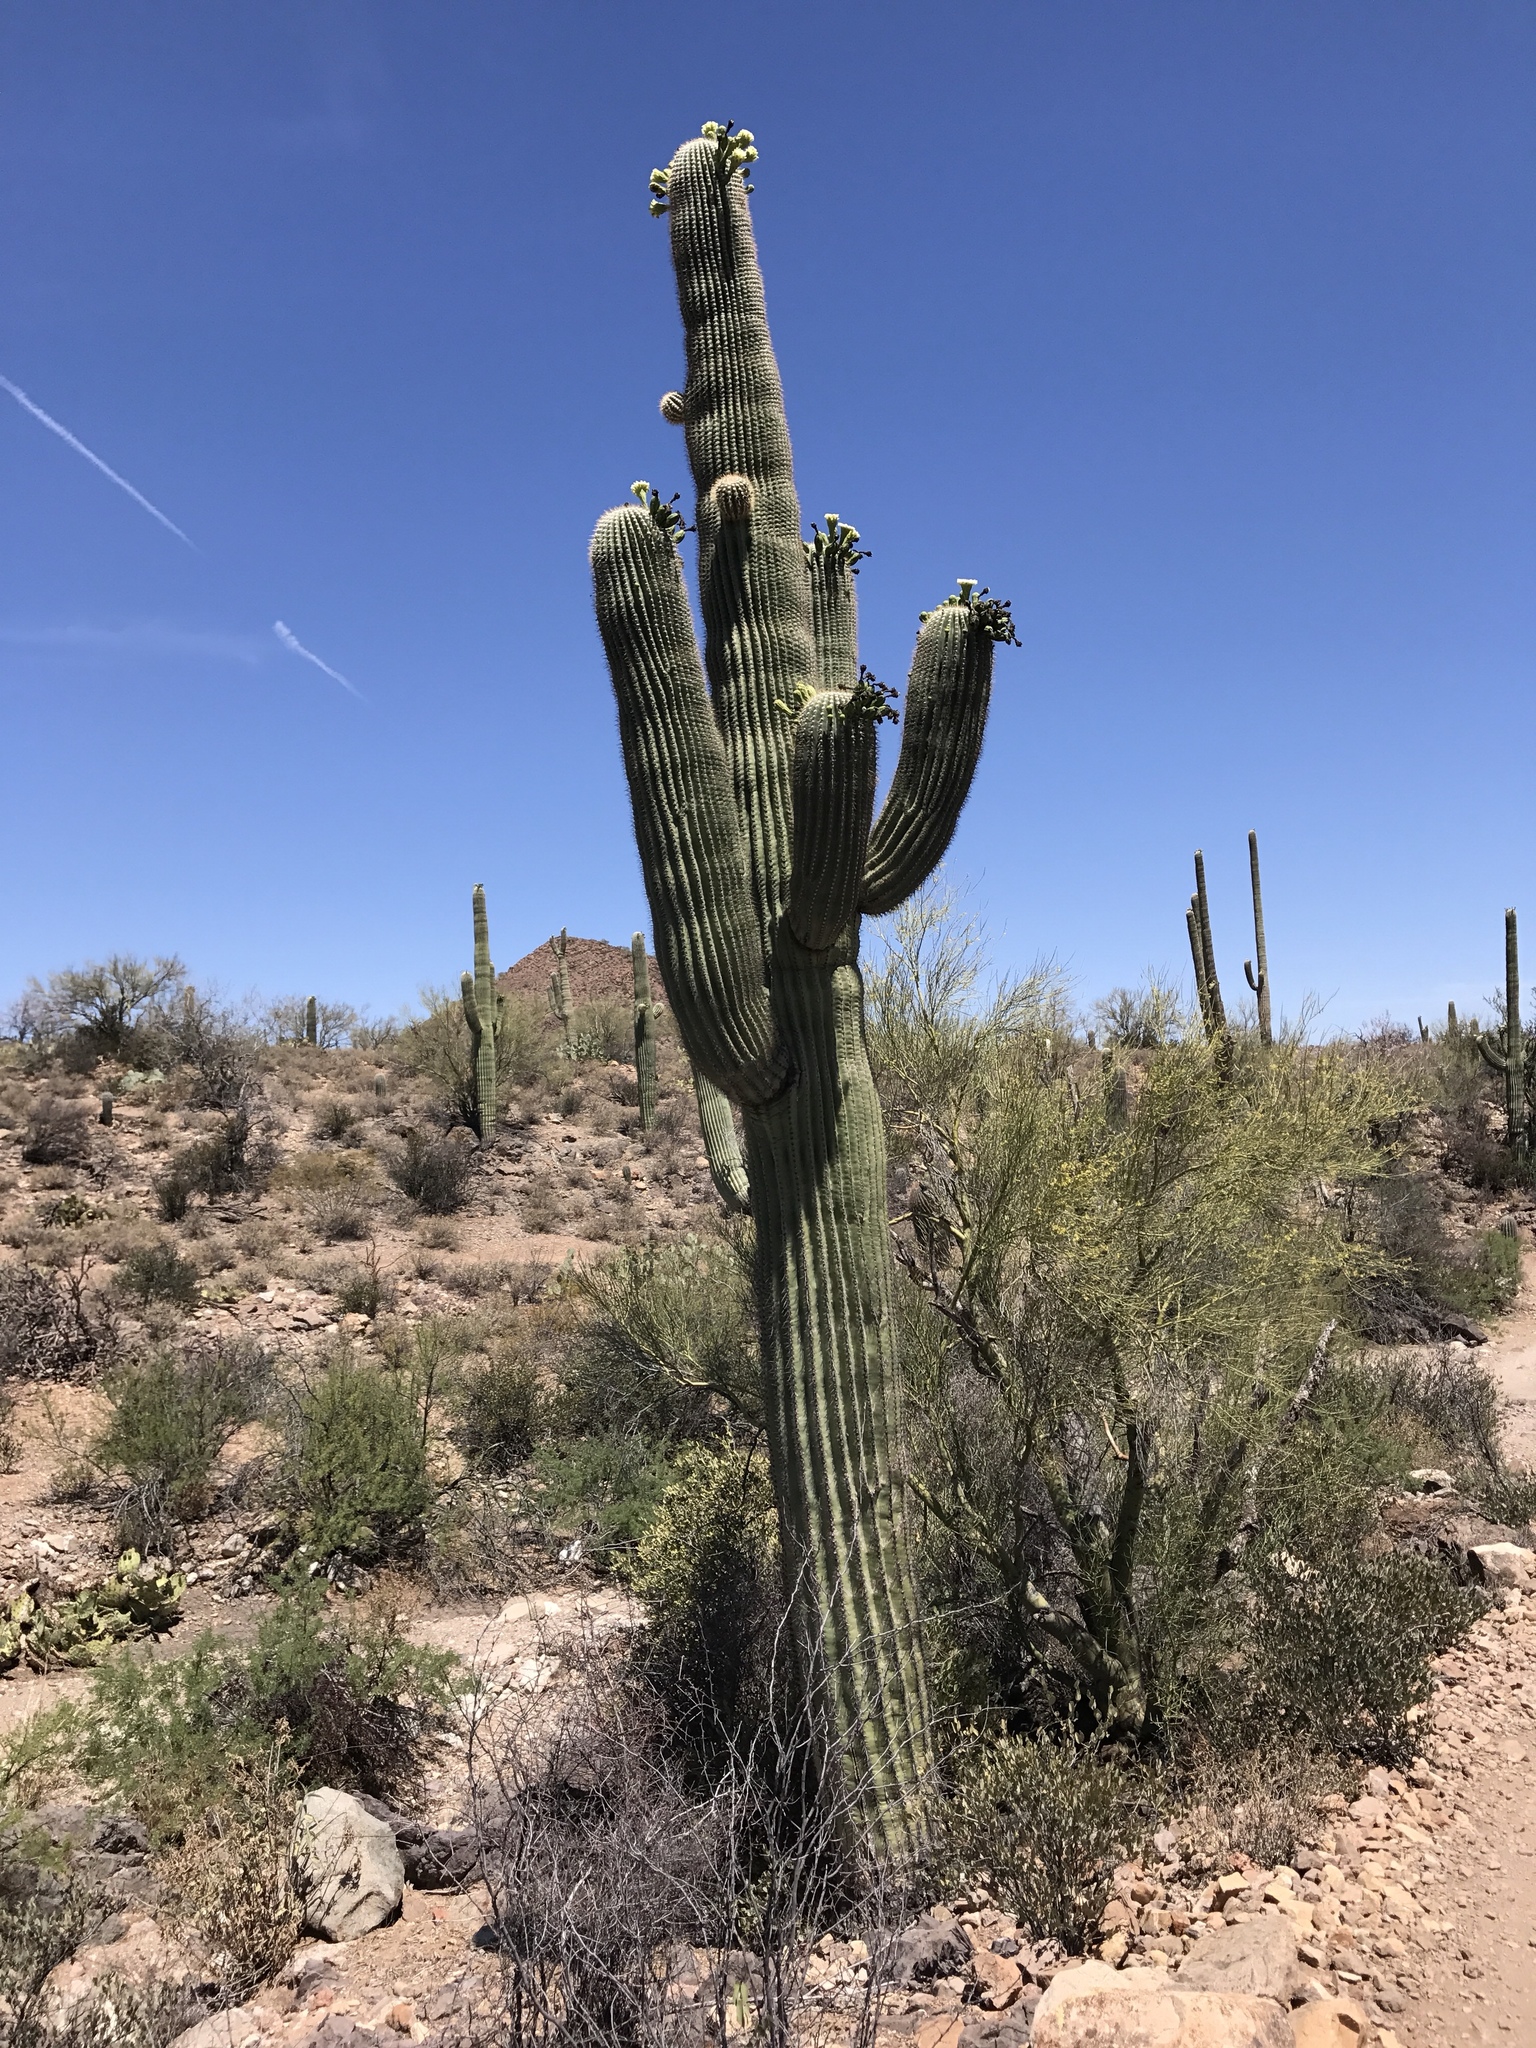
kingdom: Plantae
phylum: Tracheophyta
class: Magnoliopsida
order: Caryophyllales
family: Cactaceae
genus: Carnegiea
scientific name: Carnegiea gigantea
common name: Saguaro
